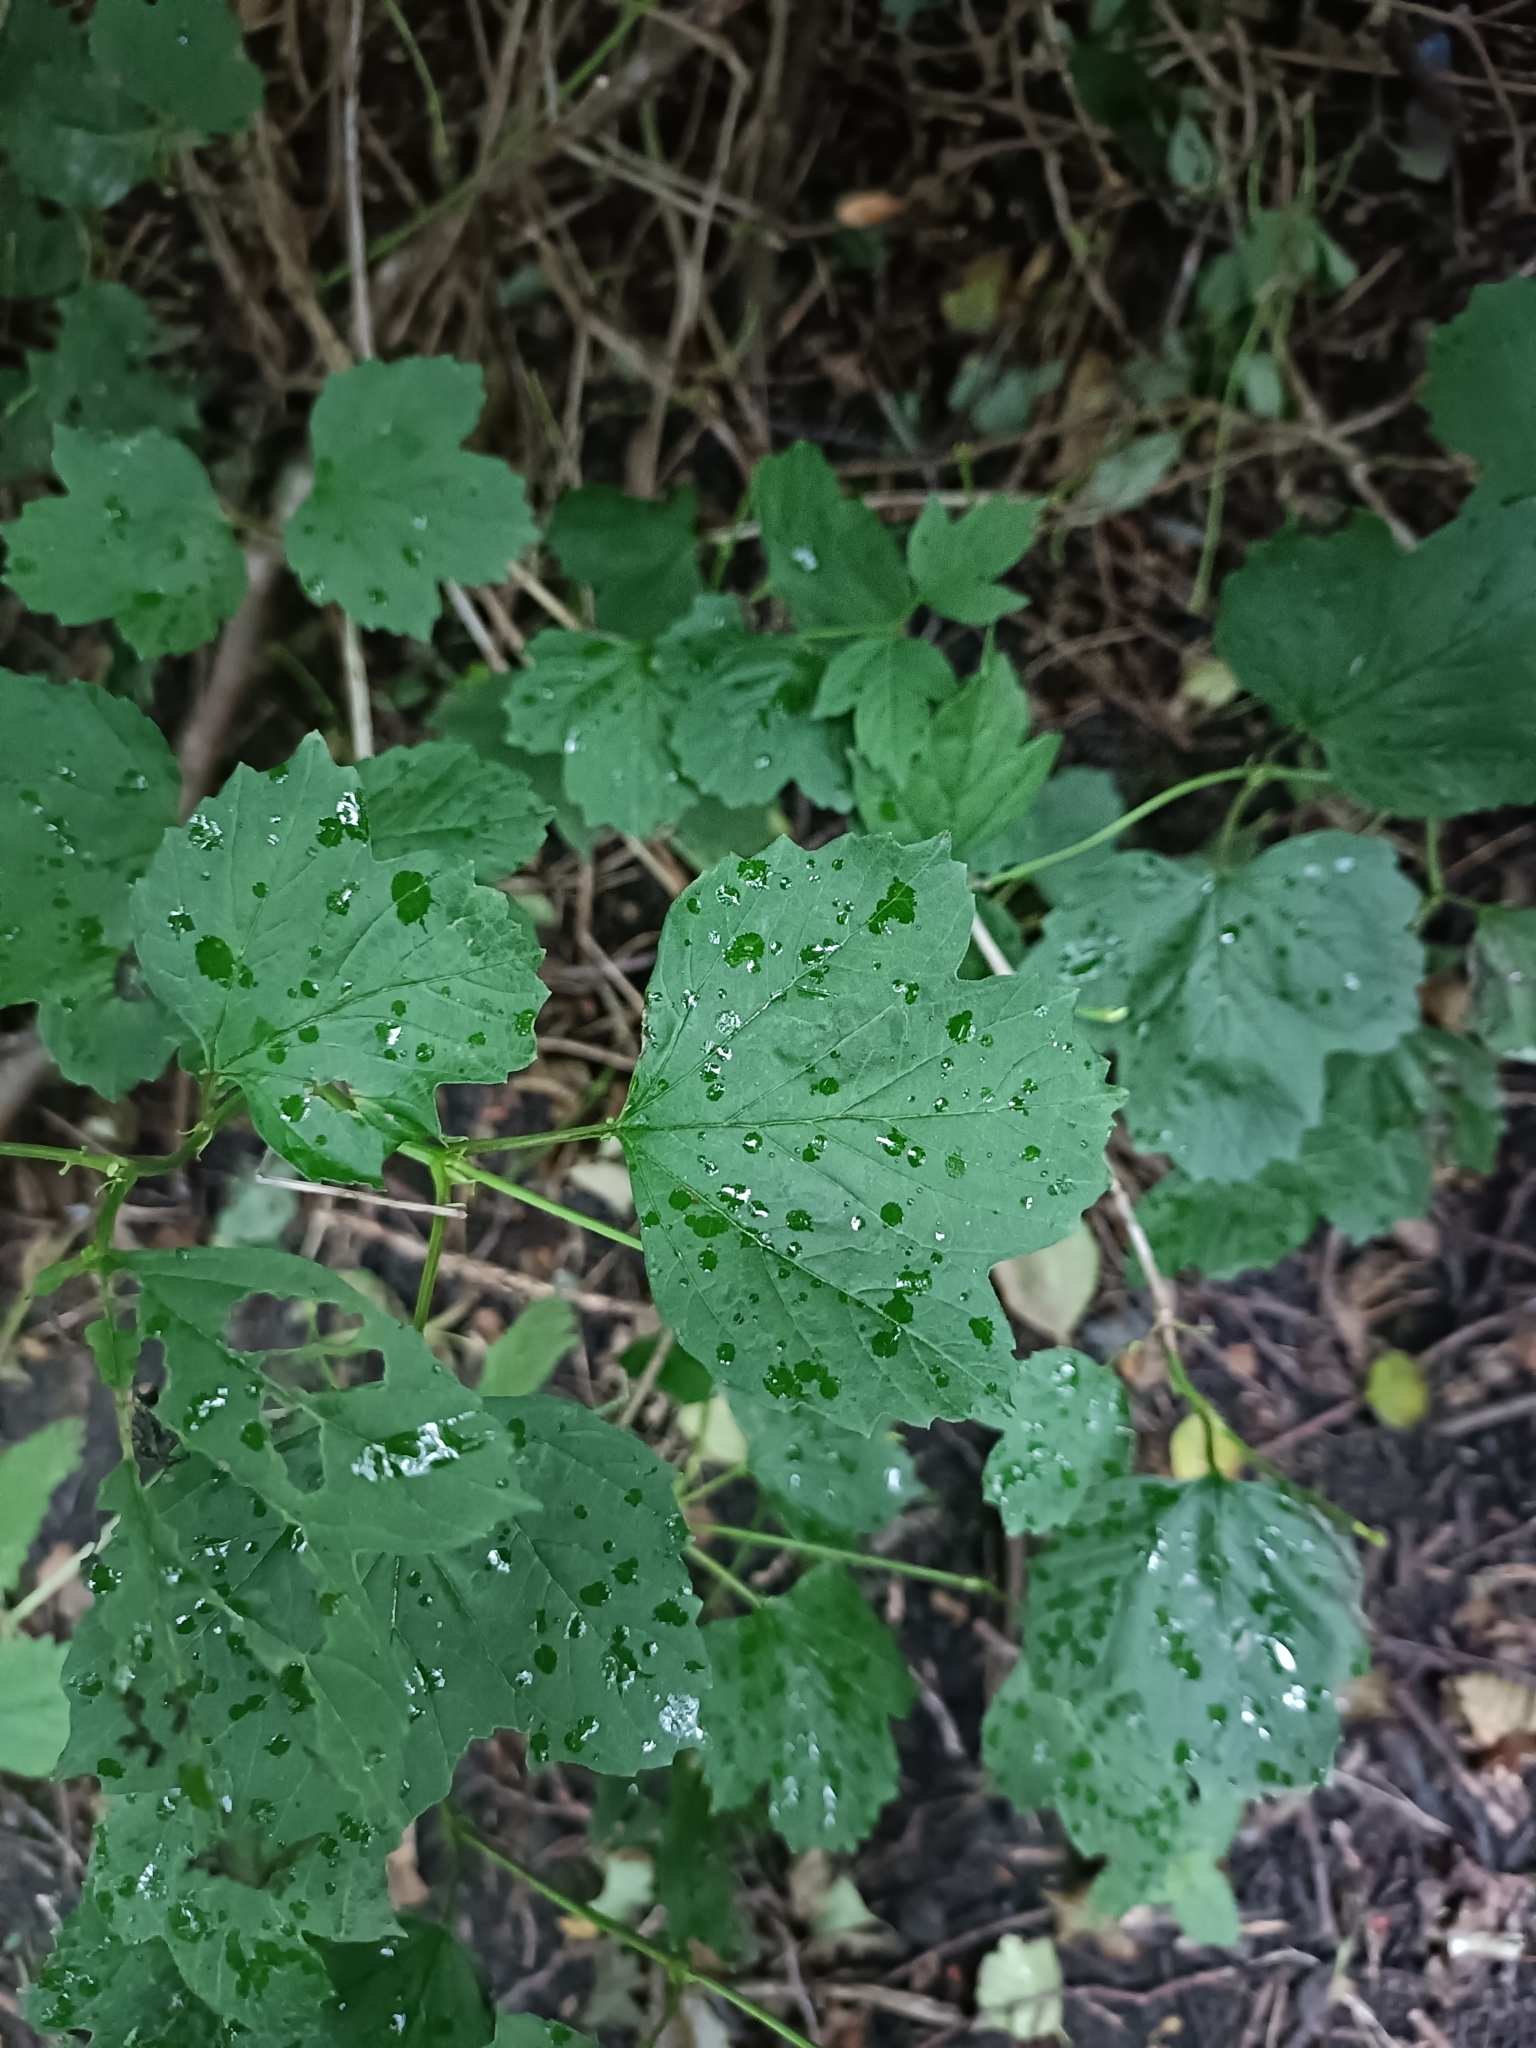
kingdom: Plantae
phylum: Tracheophyta
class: Magnoliopsida
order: Dipsacales
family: Viburnaceae
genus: Viburnum
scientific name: Viburnum opulus
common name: Guelder-rose
